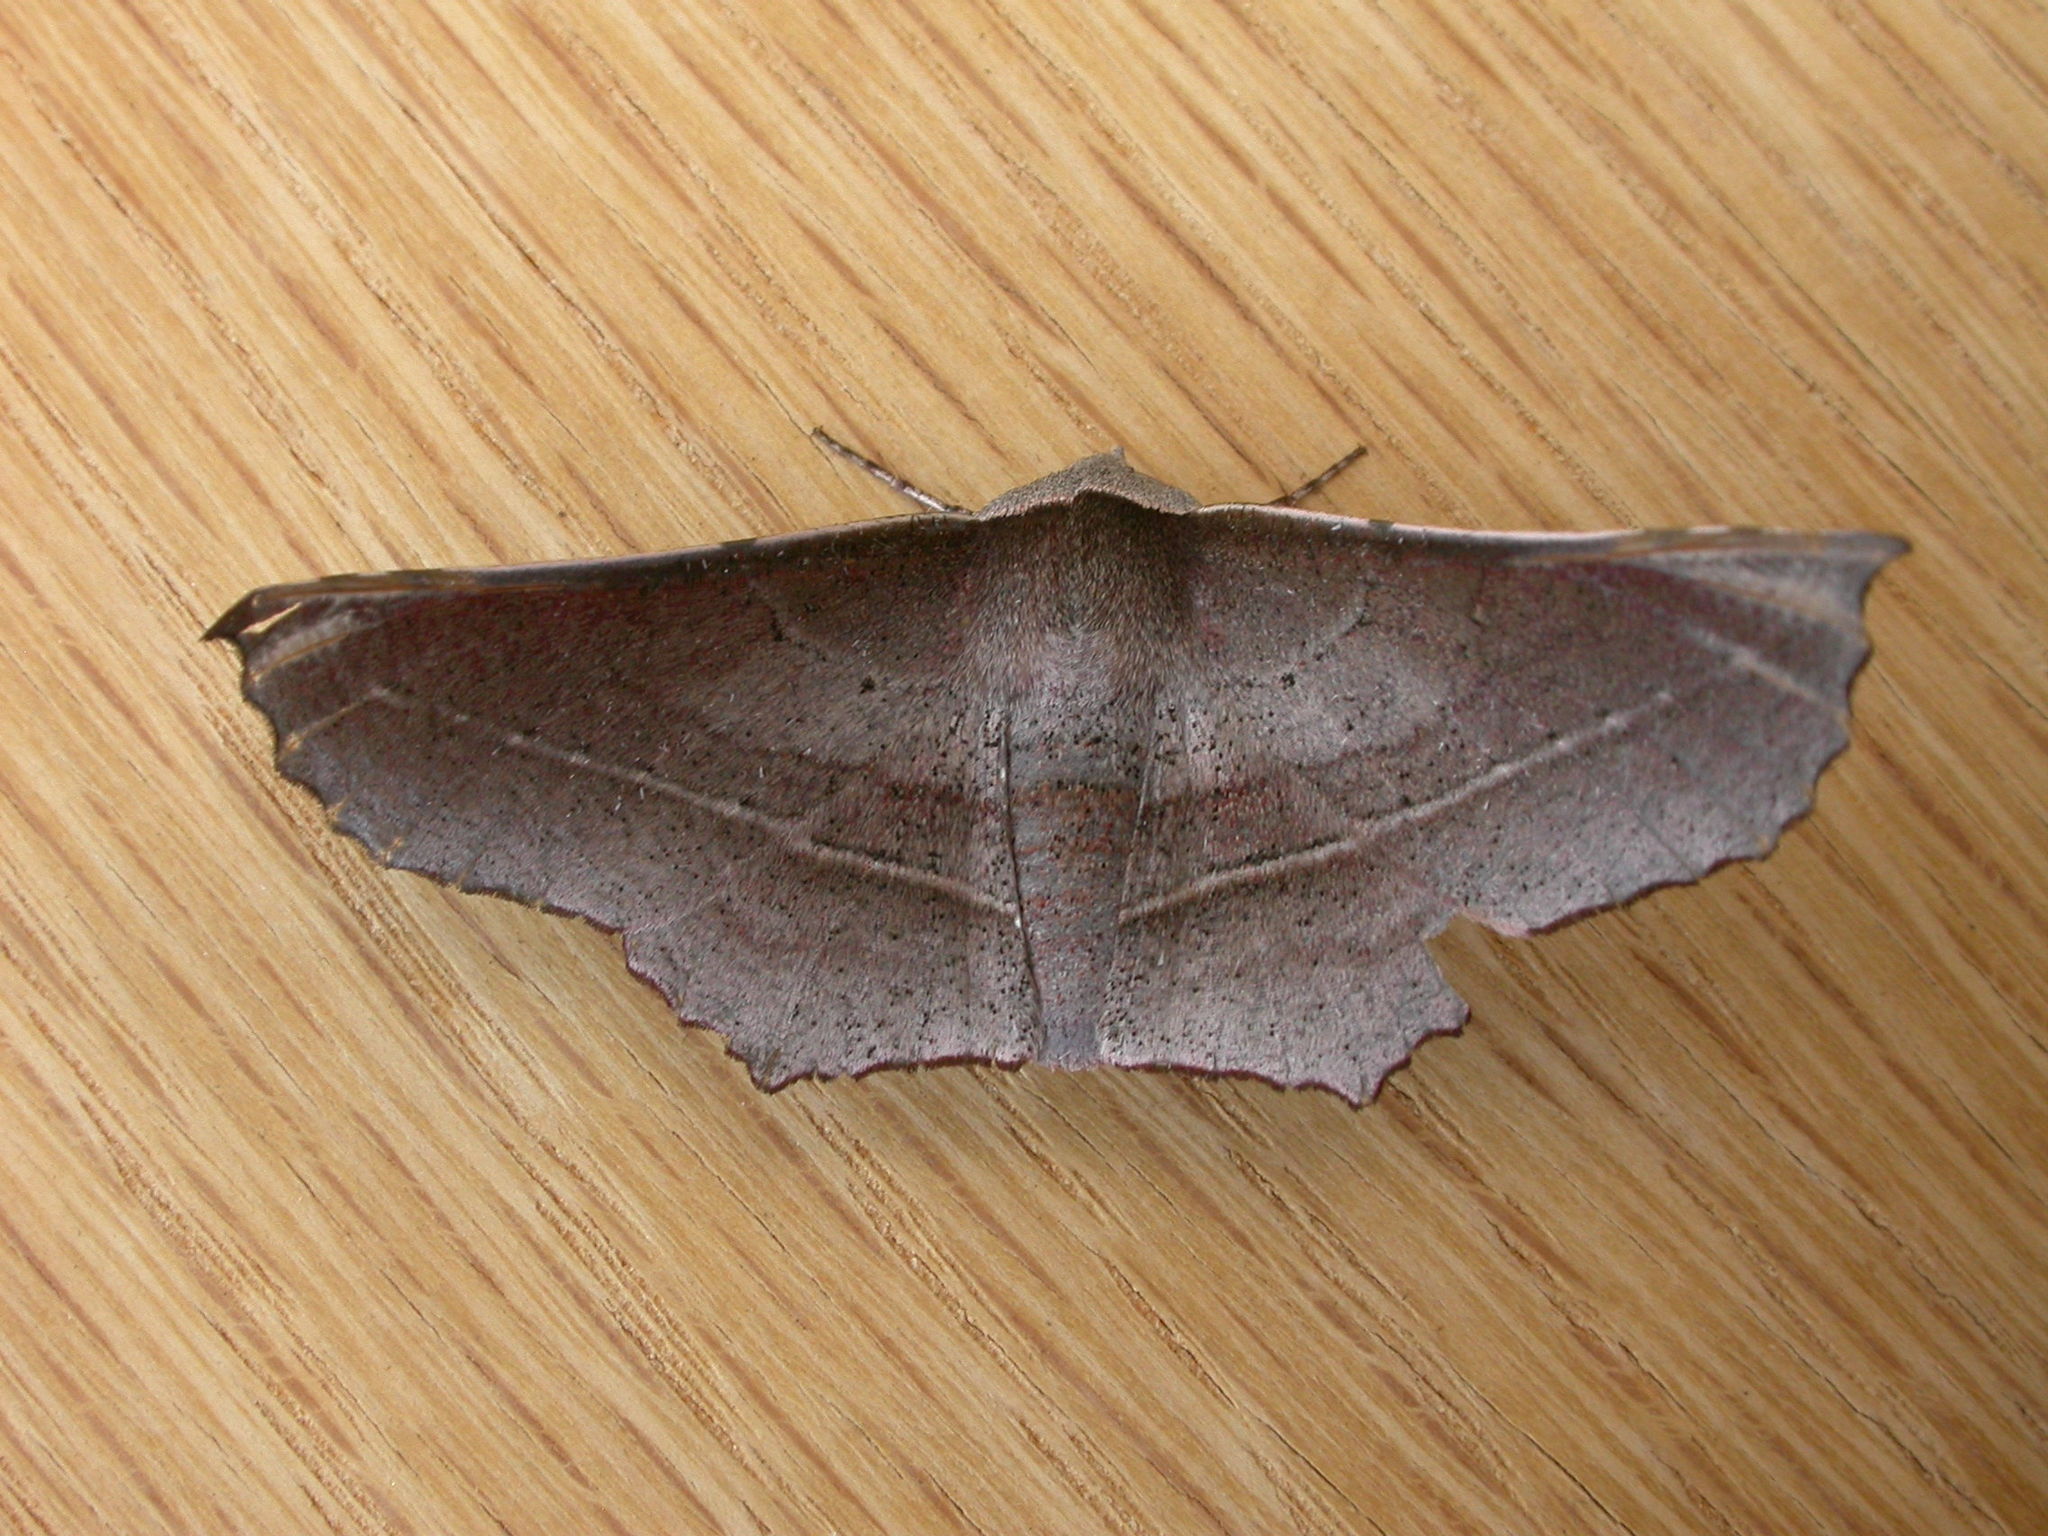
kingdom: Animalia
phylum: Arthropoda
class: Insecta
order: Lepidoptera
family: Geometridae
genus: Oenochroma
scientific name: Oenochroma vetustaria
